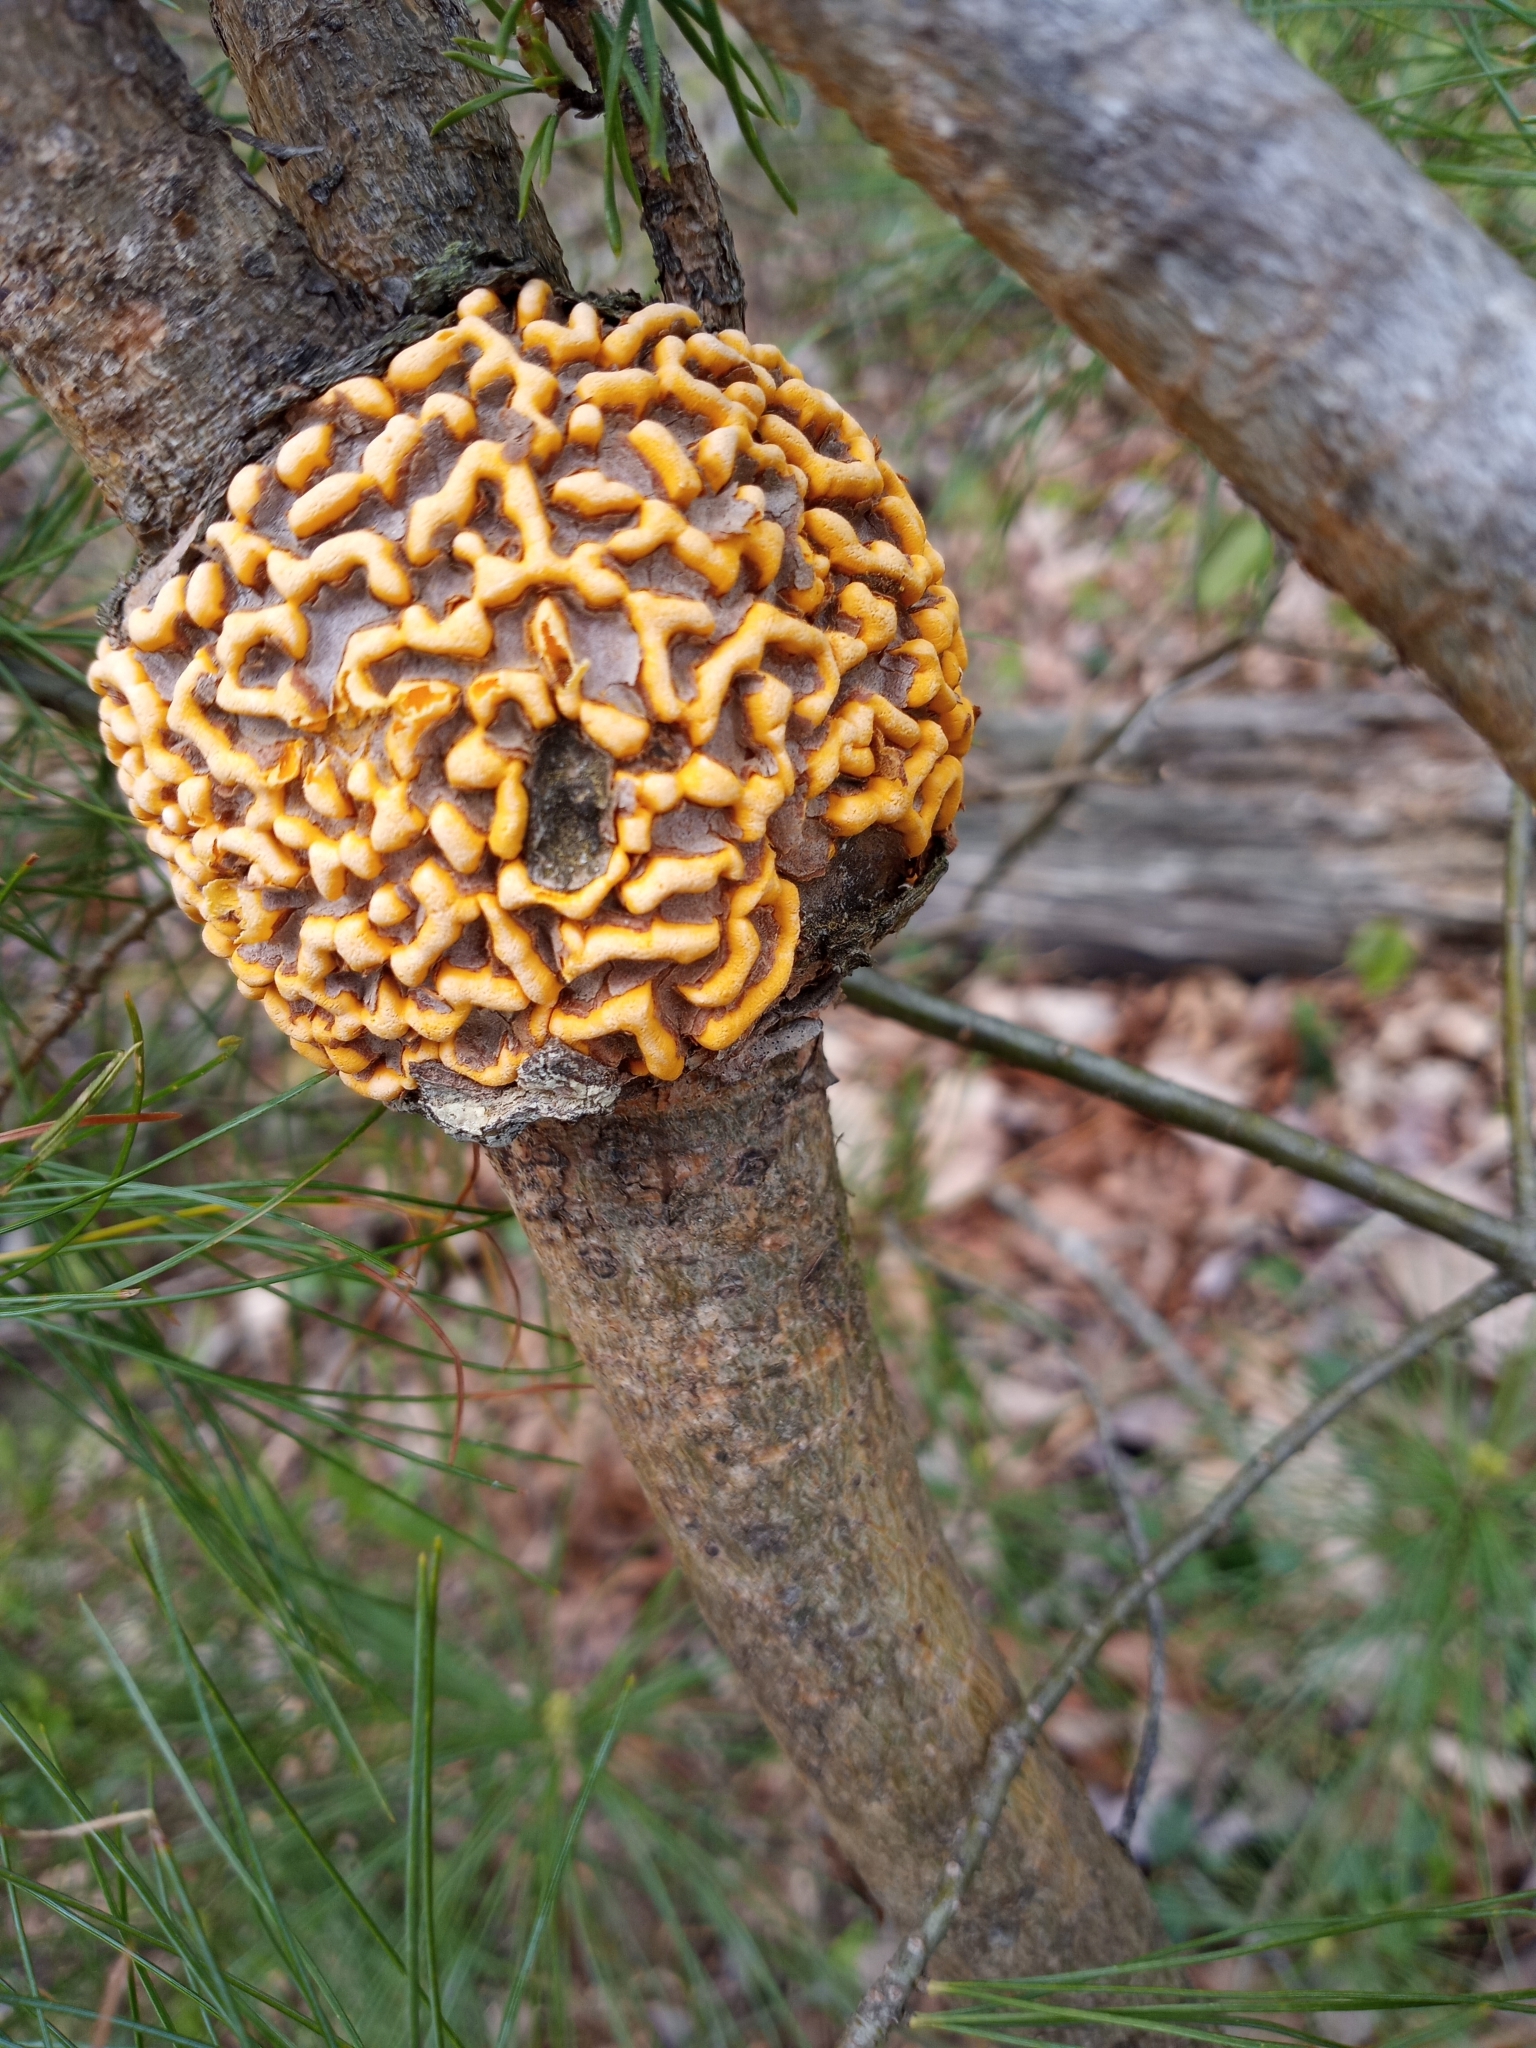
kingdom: Fungi
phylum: Basidiomycota
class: Pucciniomycetes
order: Pucciniales
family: Cronartiaceae
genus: Cronartium
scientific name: Cronartium quercuum
